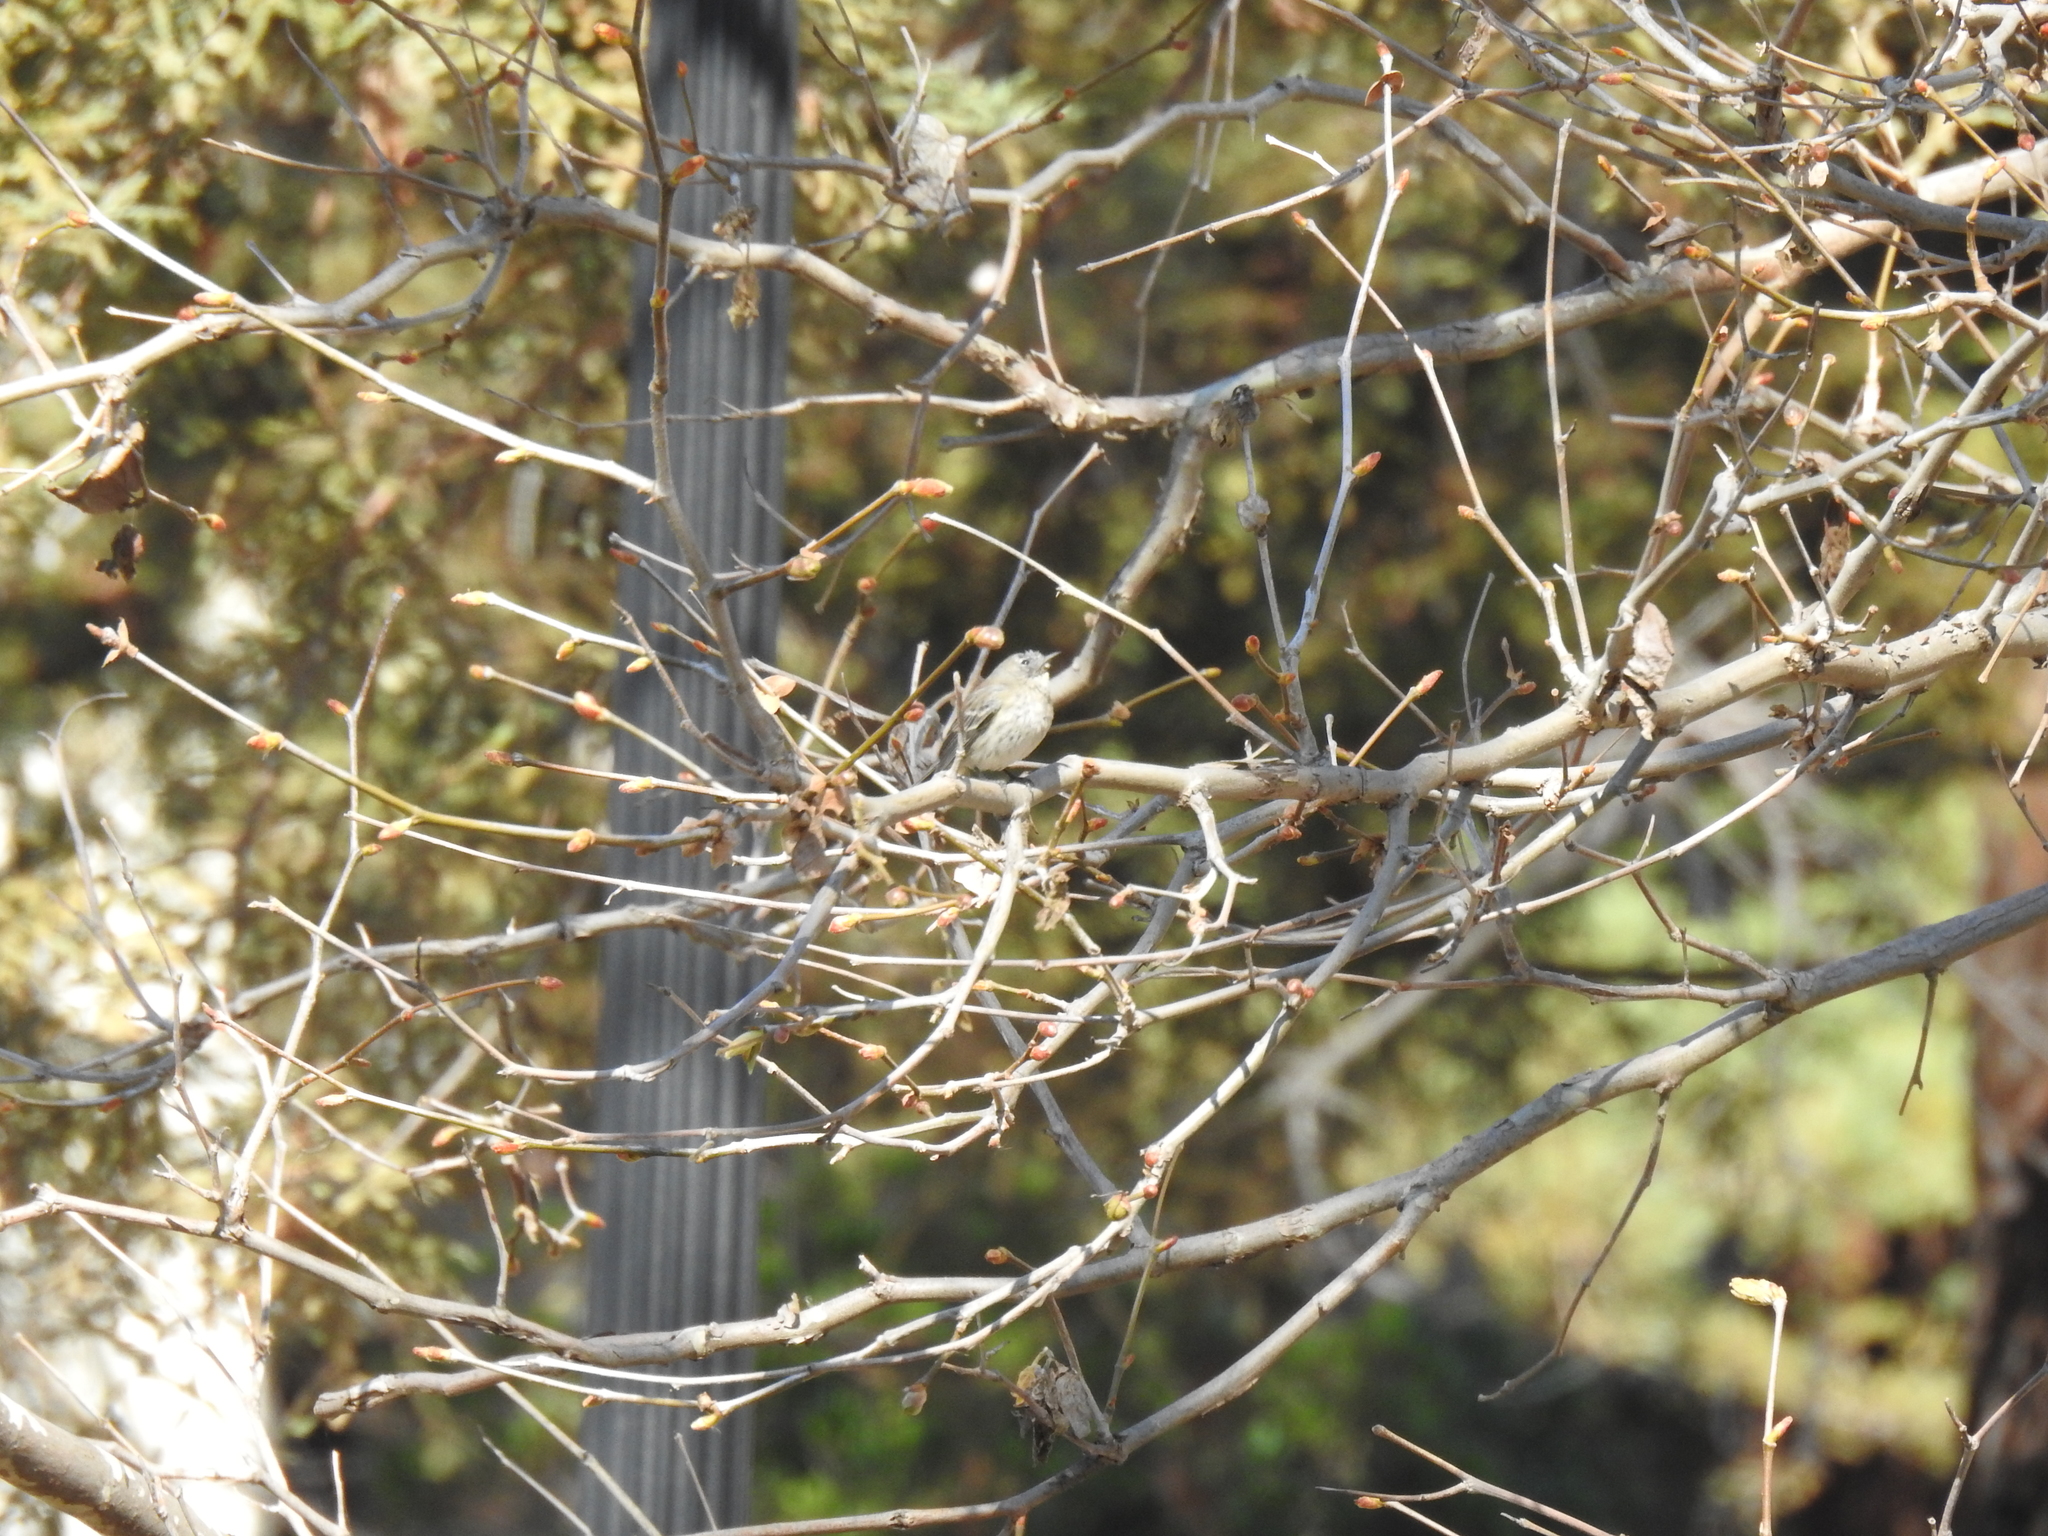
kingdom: Animalia
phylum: Chordata
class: Aves
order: Passeriformes
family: Parulidae
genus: Setophaga
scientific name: Setophaga coronata
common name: Myrtle warbler
